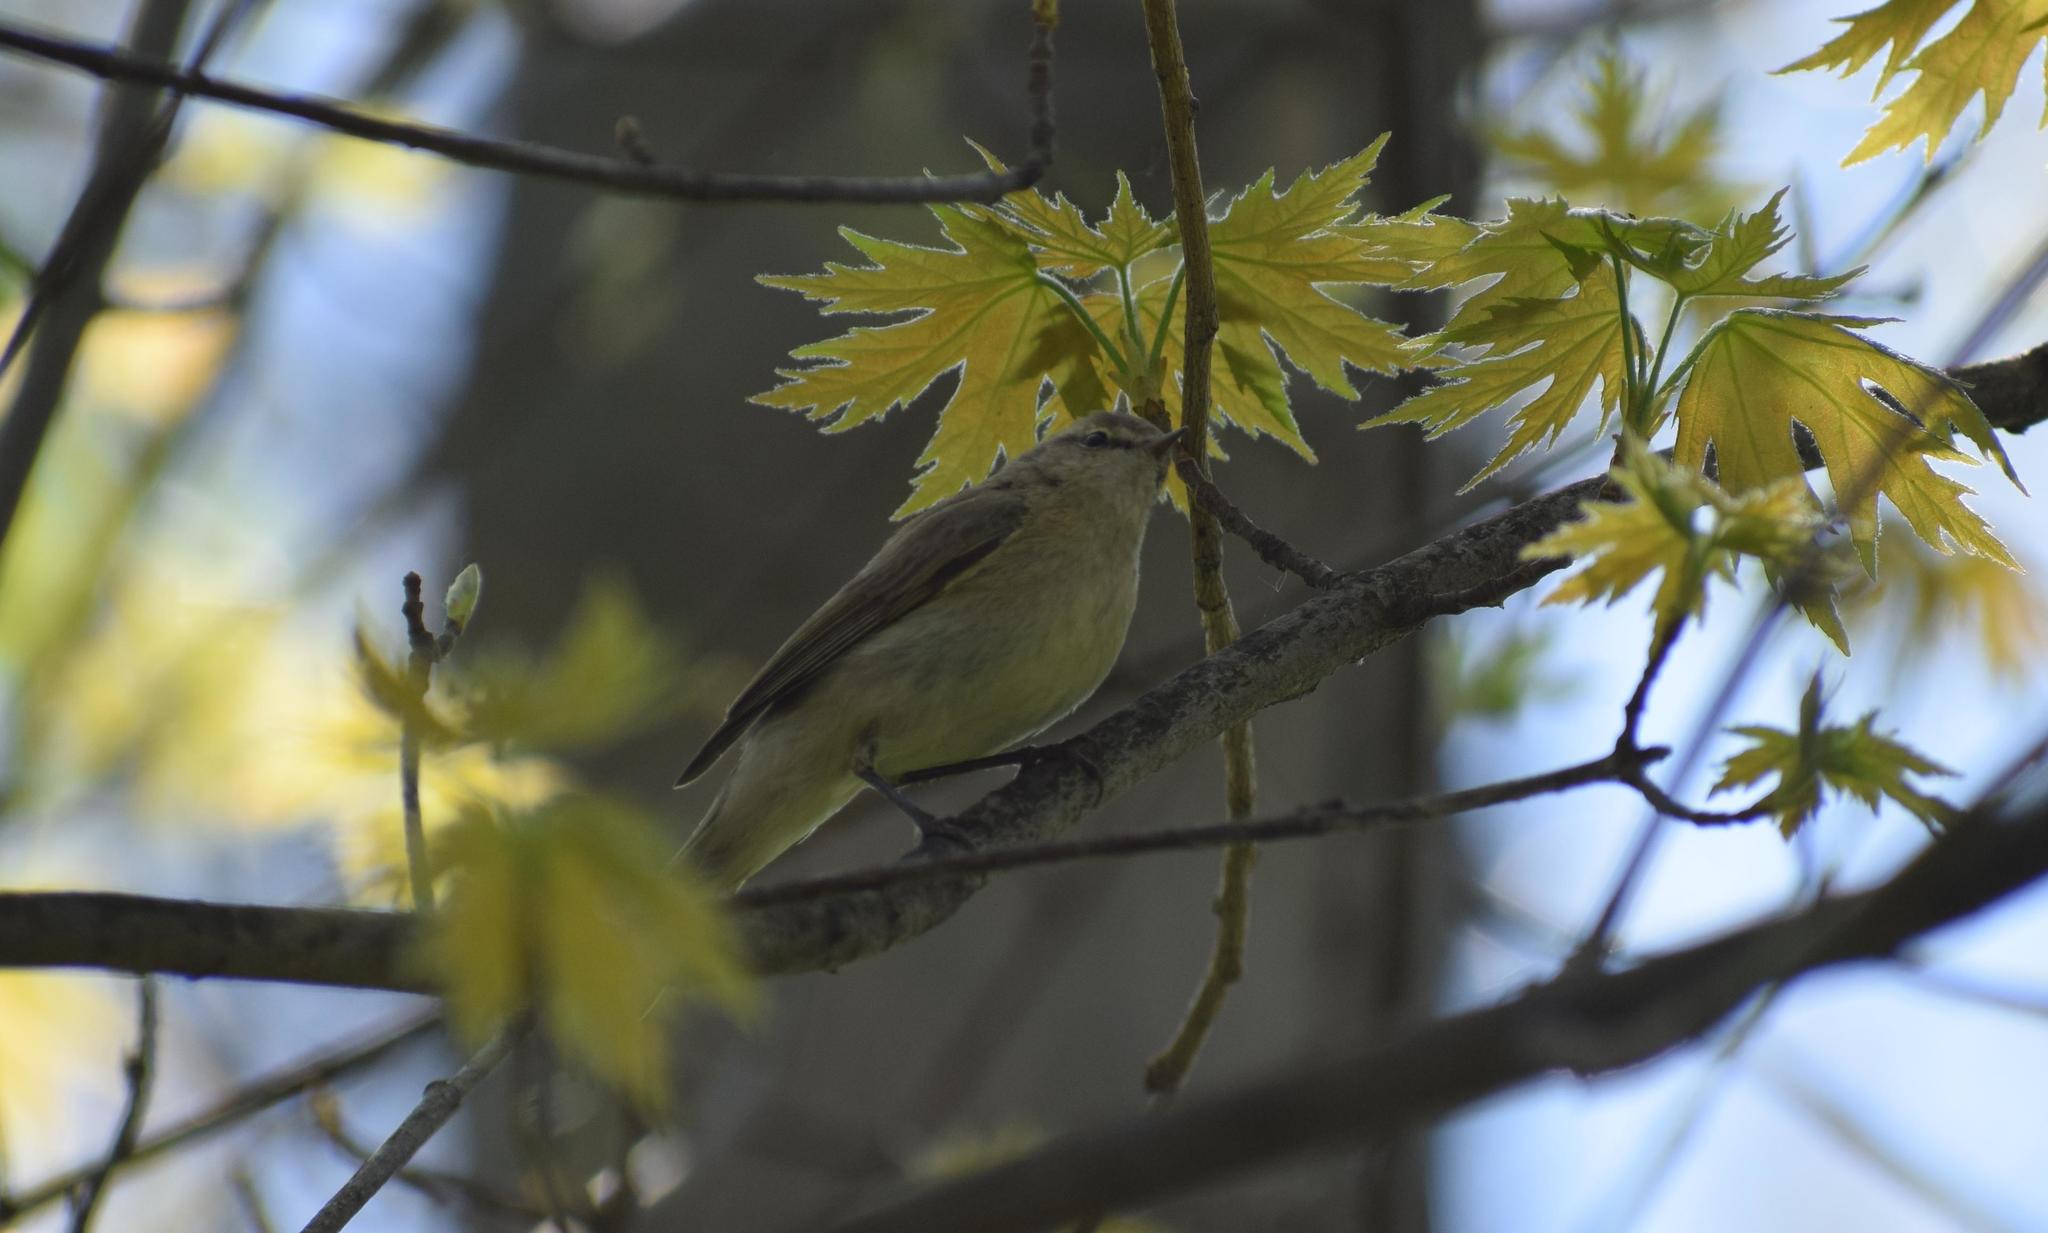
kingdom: Animalia
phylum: Chordata
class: Aves
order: Passeriformes
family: Phylloscopidae
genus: Phylloscopus
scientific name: Phylloscopus collybita
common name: Common chiffchaff
